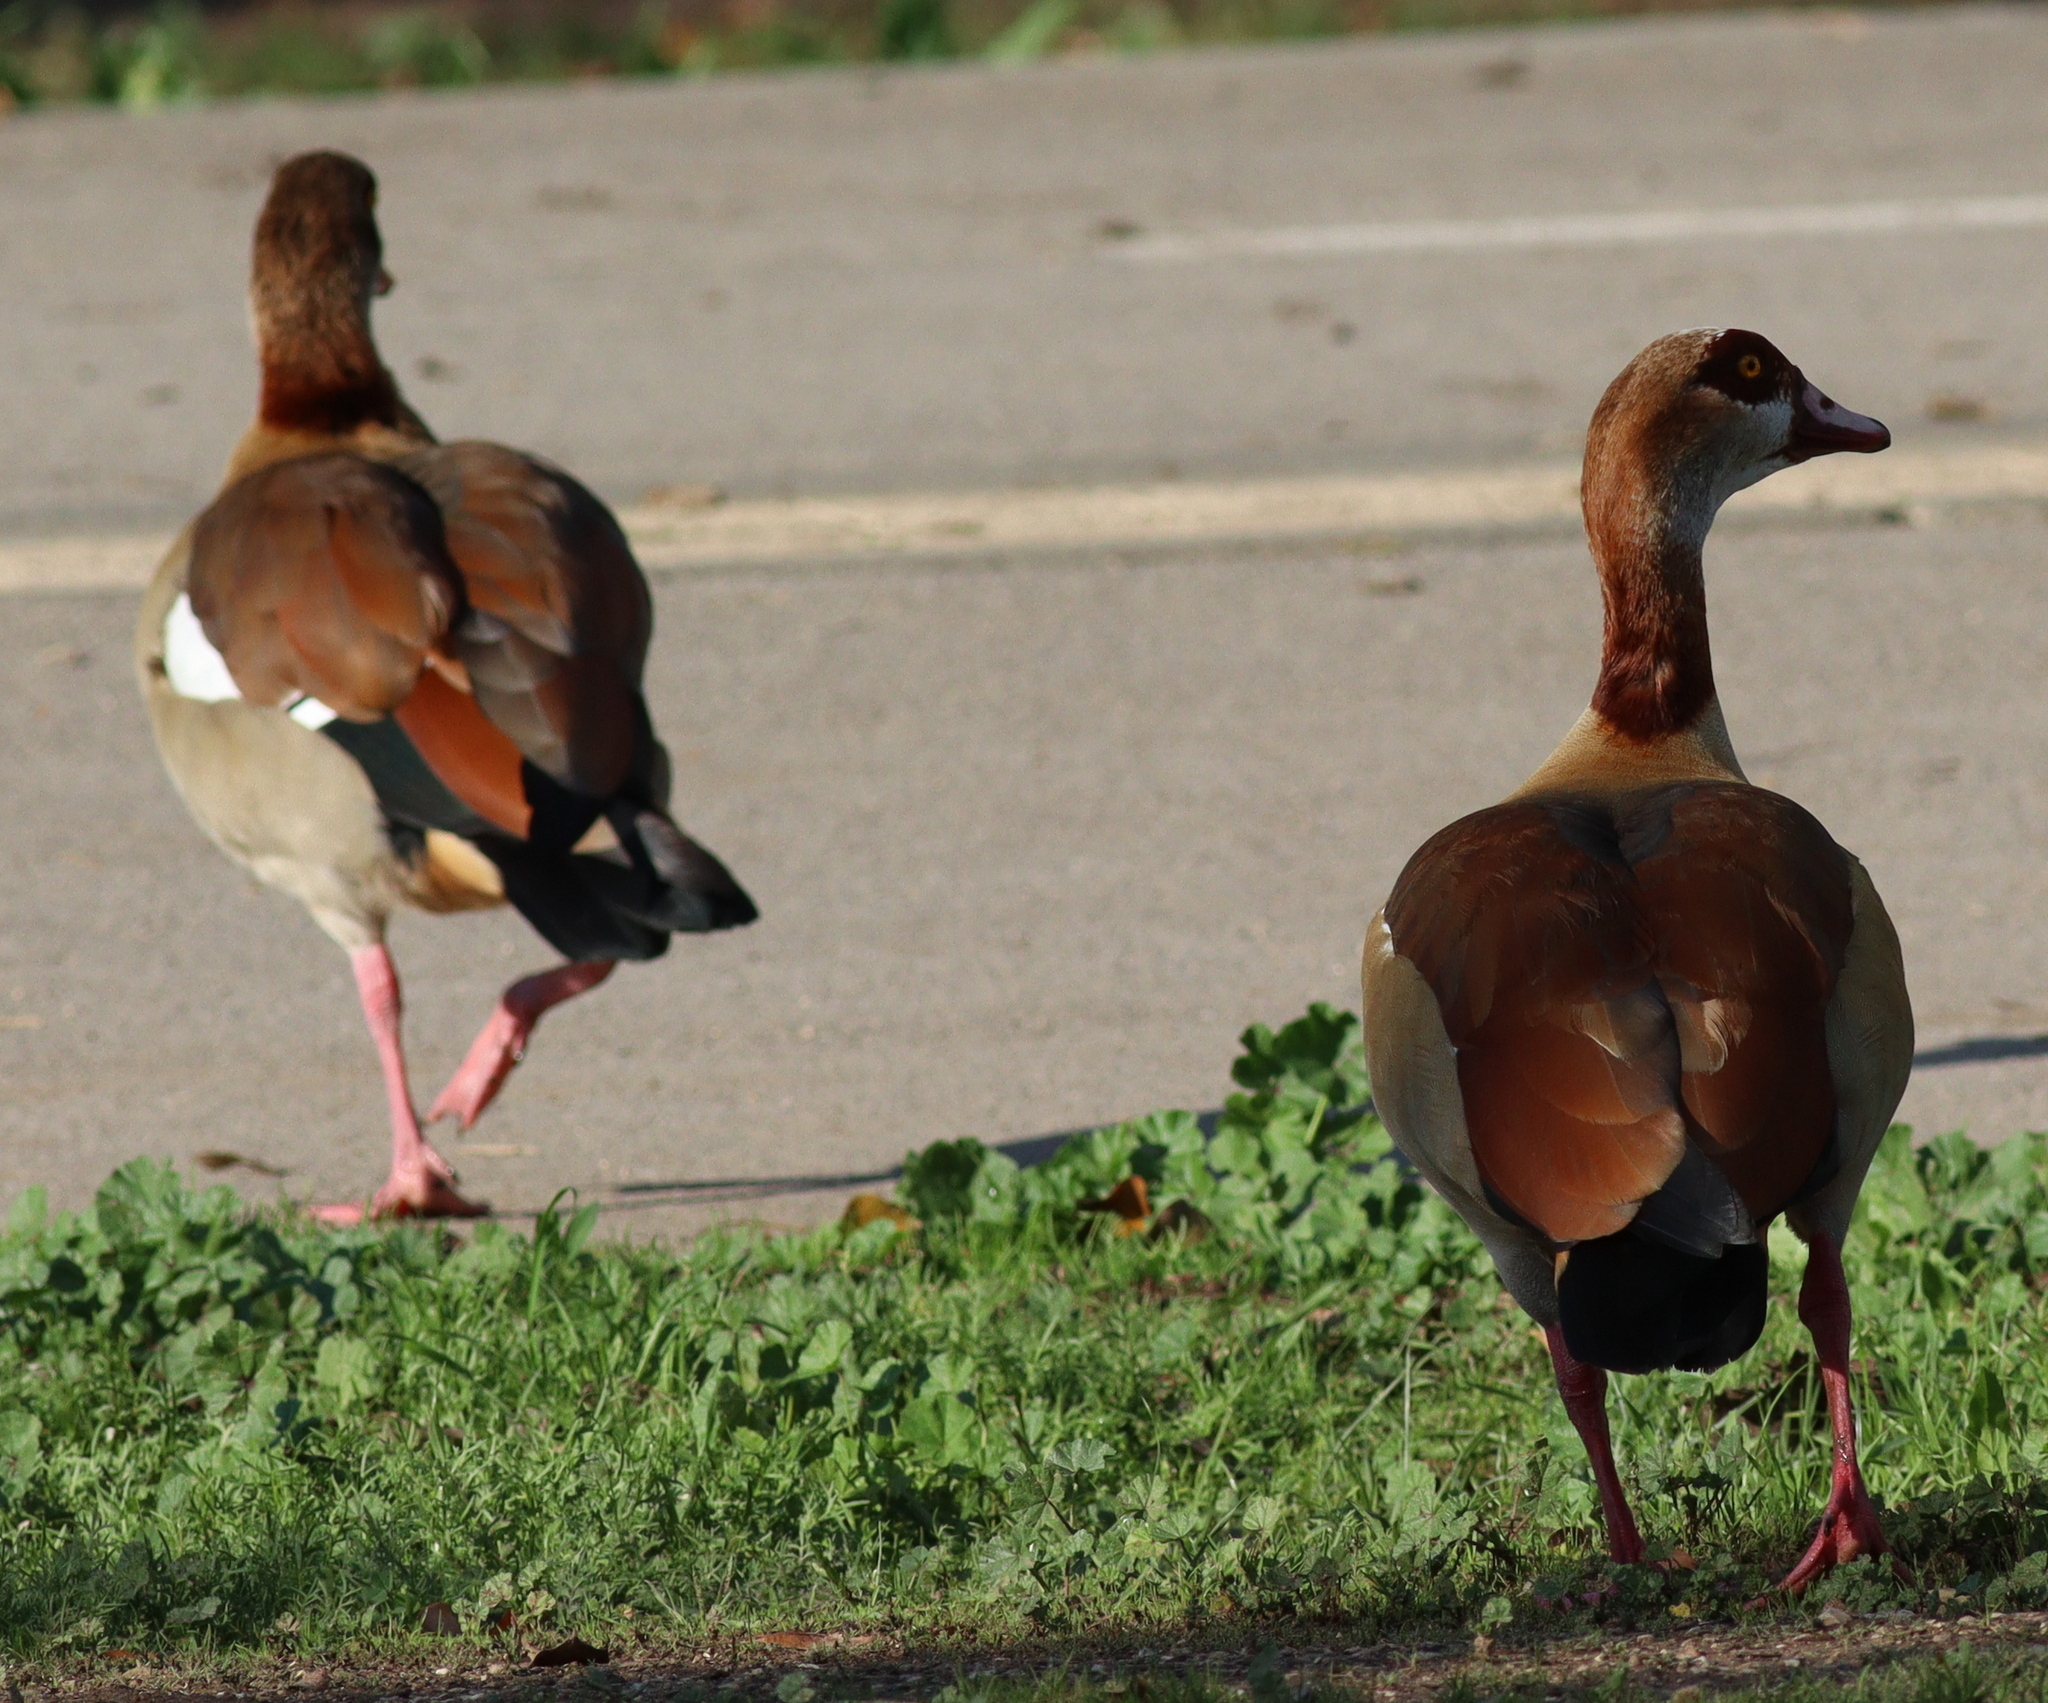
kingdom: Animalia
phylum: Chordata
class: Aves
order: Anseriformes
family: Anatidae
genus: Alopochen
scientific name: Alopochen aegyptiaca
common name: Egyptian goose
